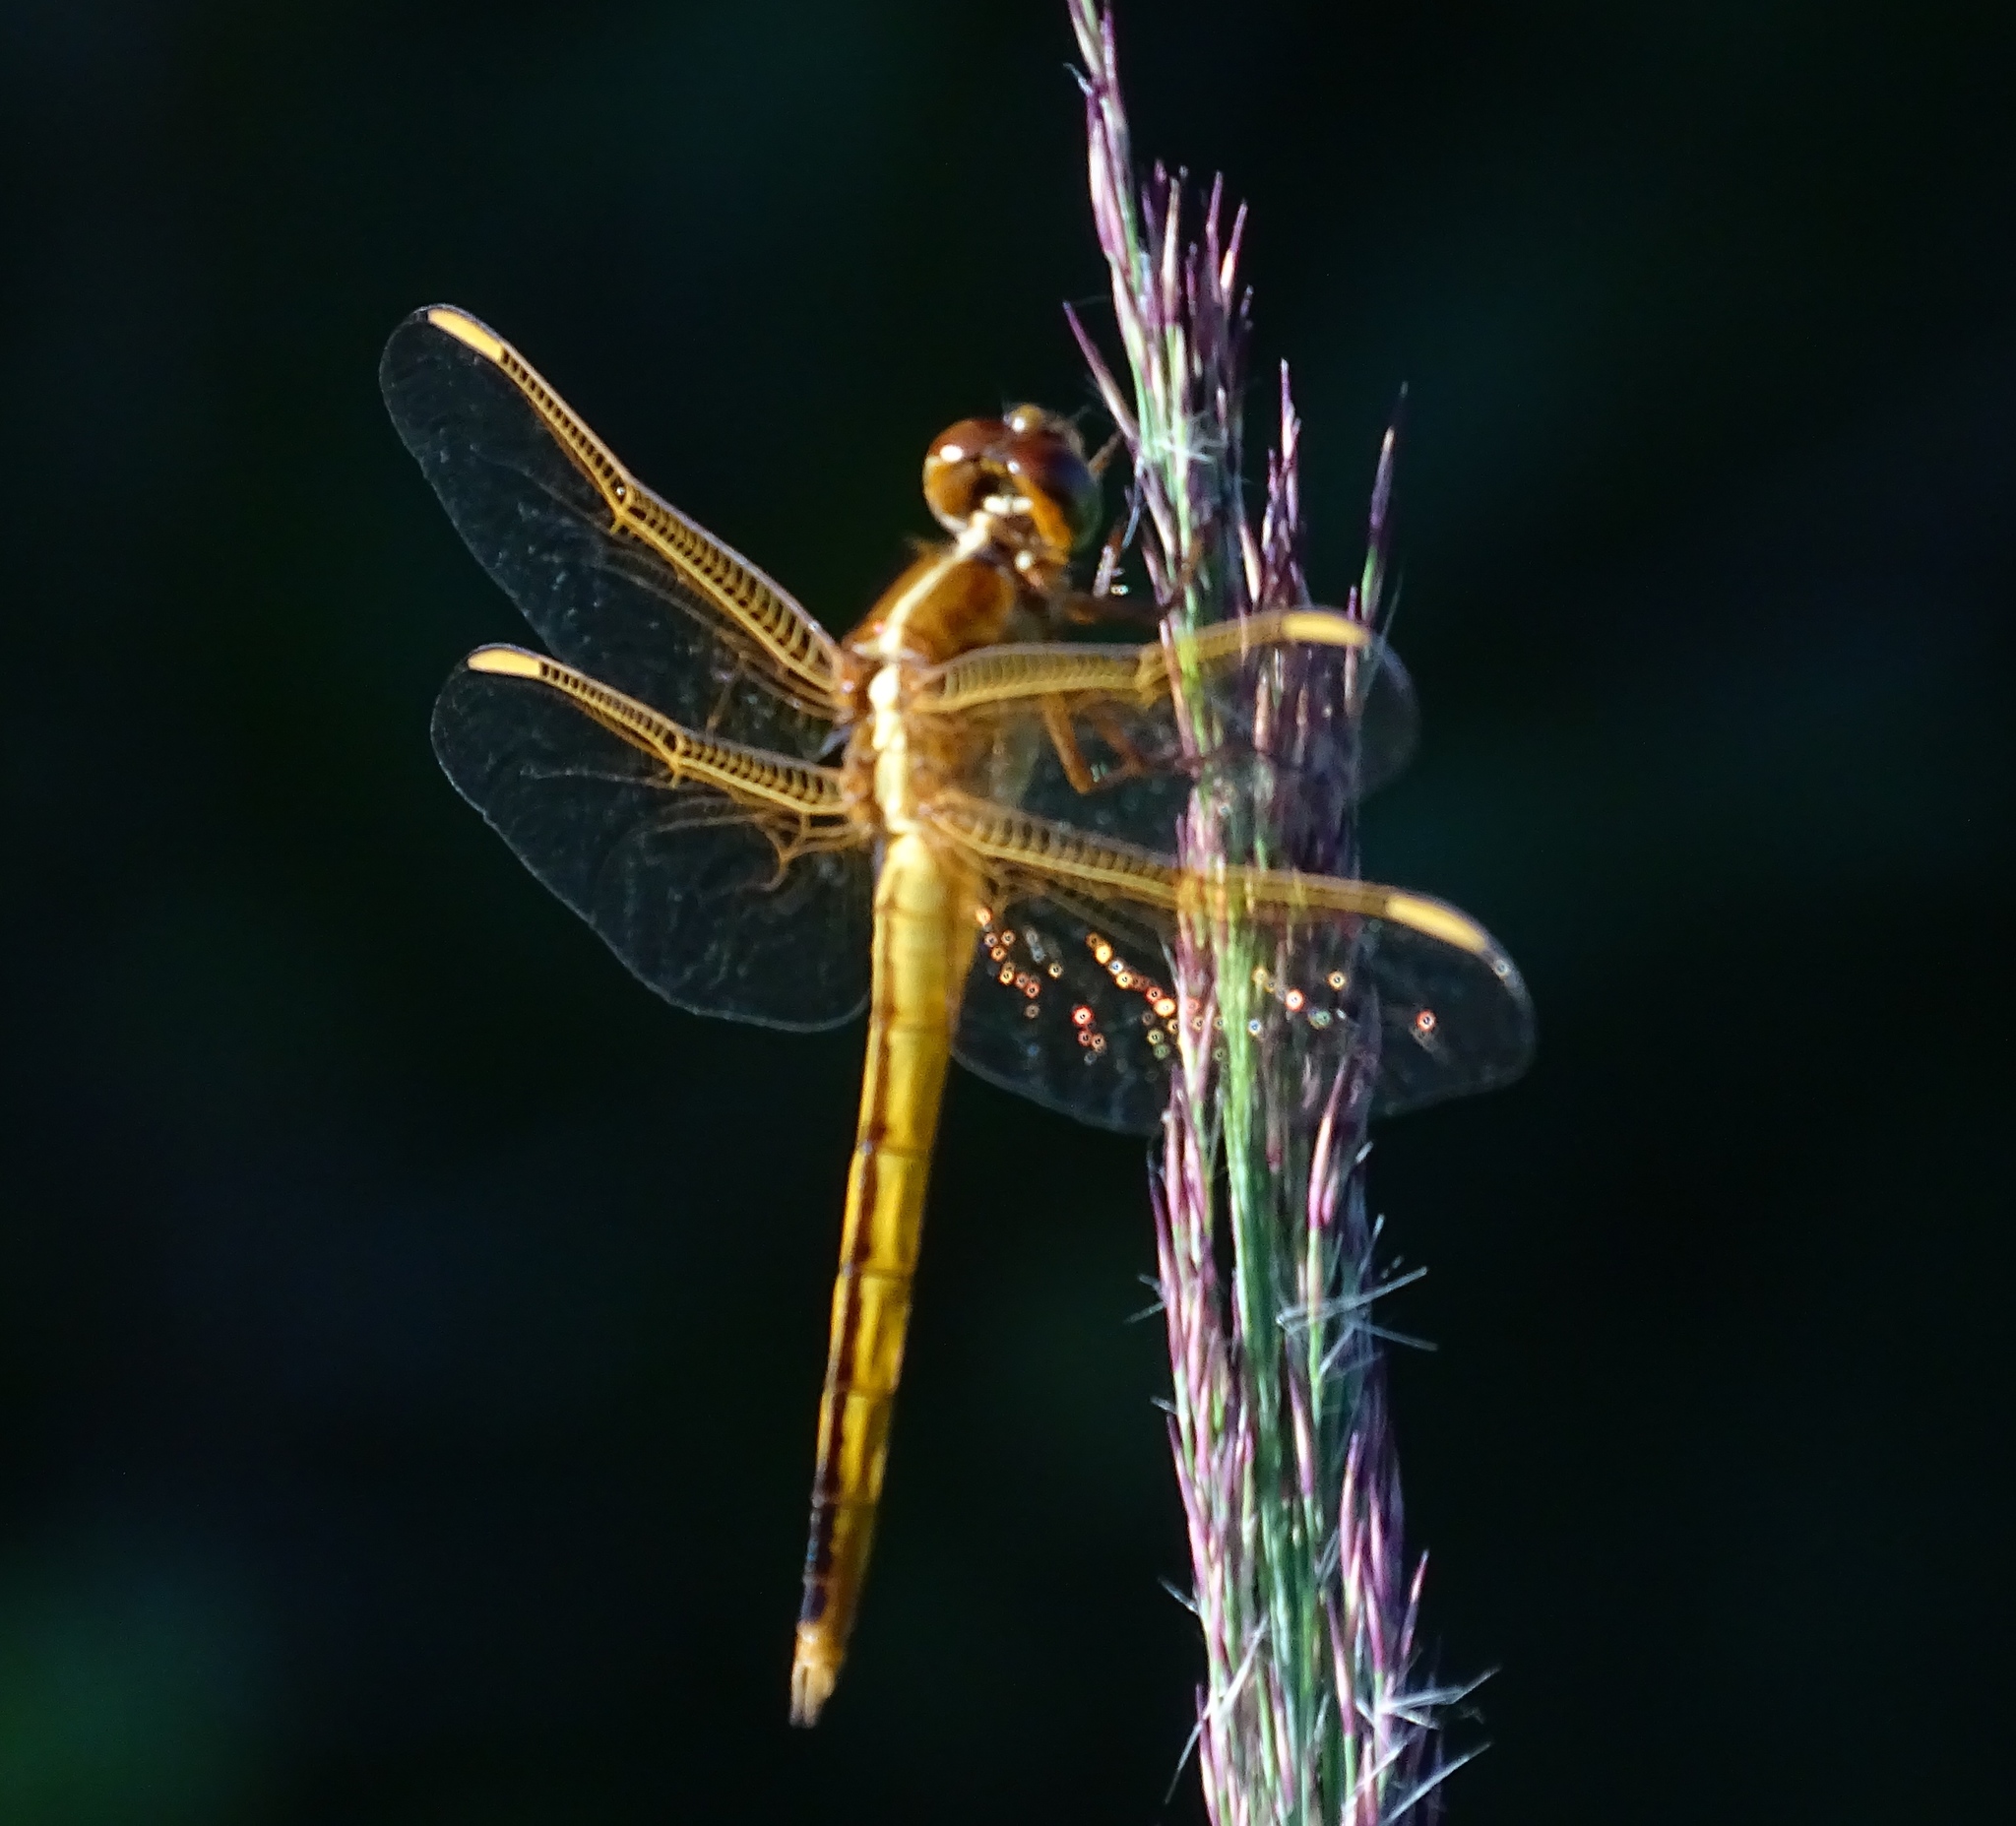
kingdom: Animalia
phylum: Arthropoda
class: Insecta
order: Odonata
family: Libellulidae
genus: Libellula
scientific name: Libellula needhami
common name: Needham's skimmer
